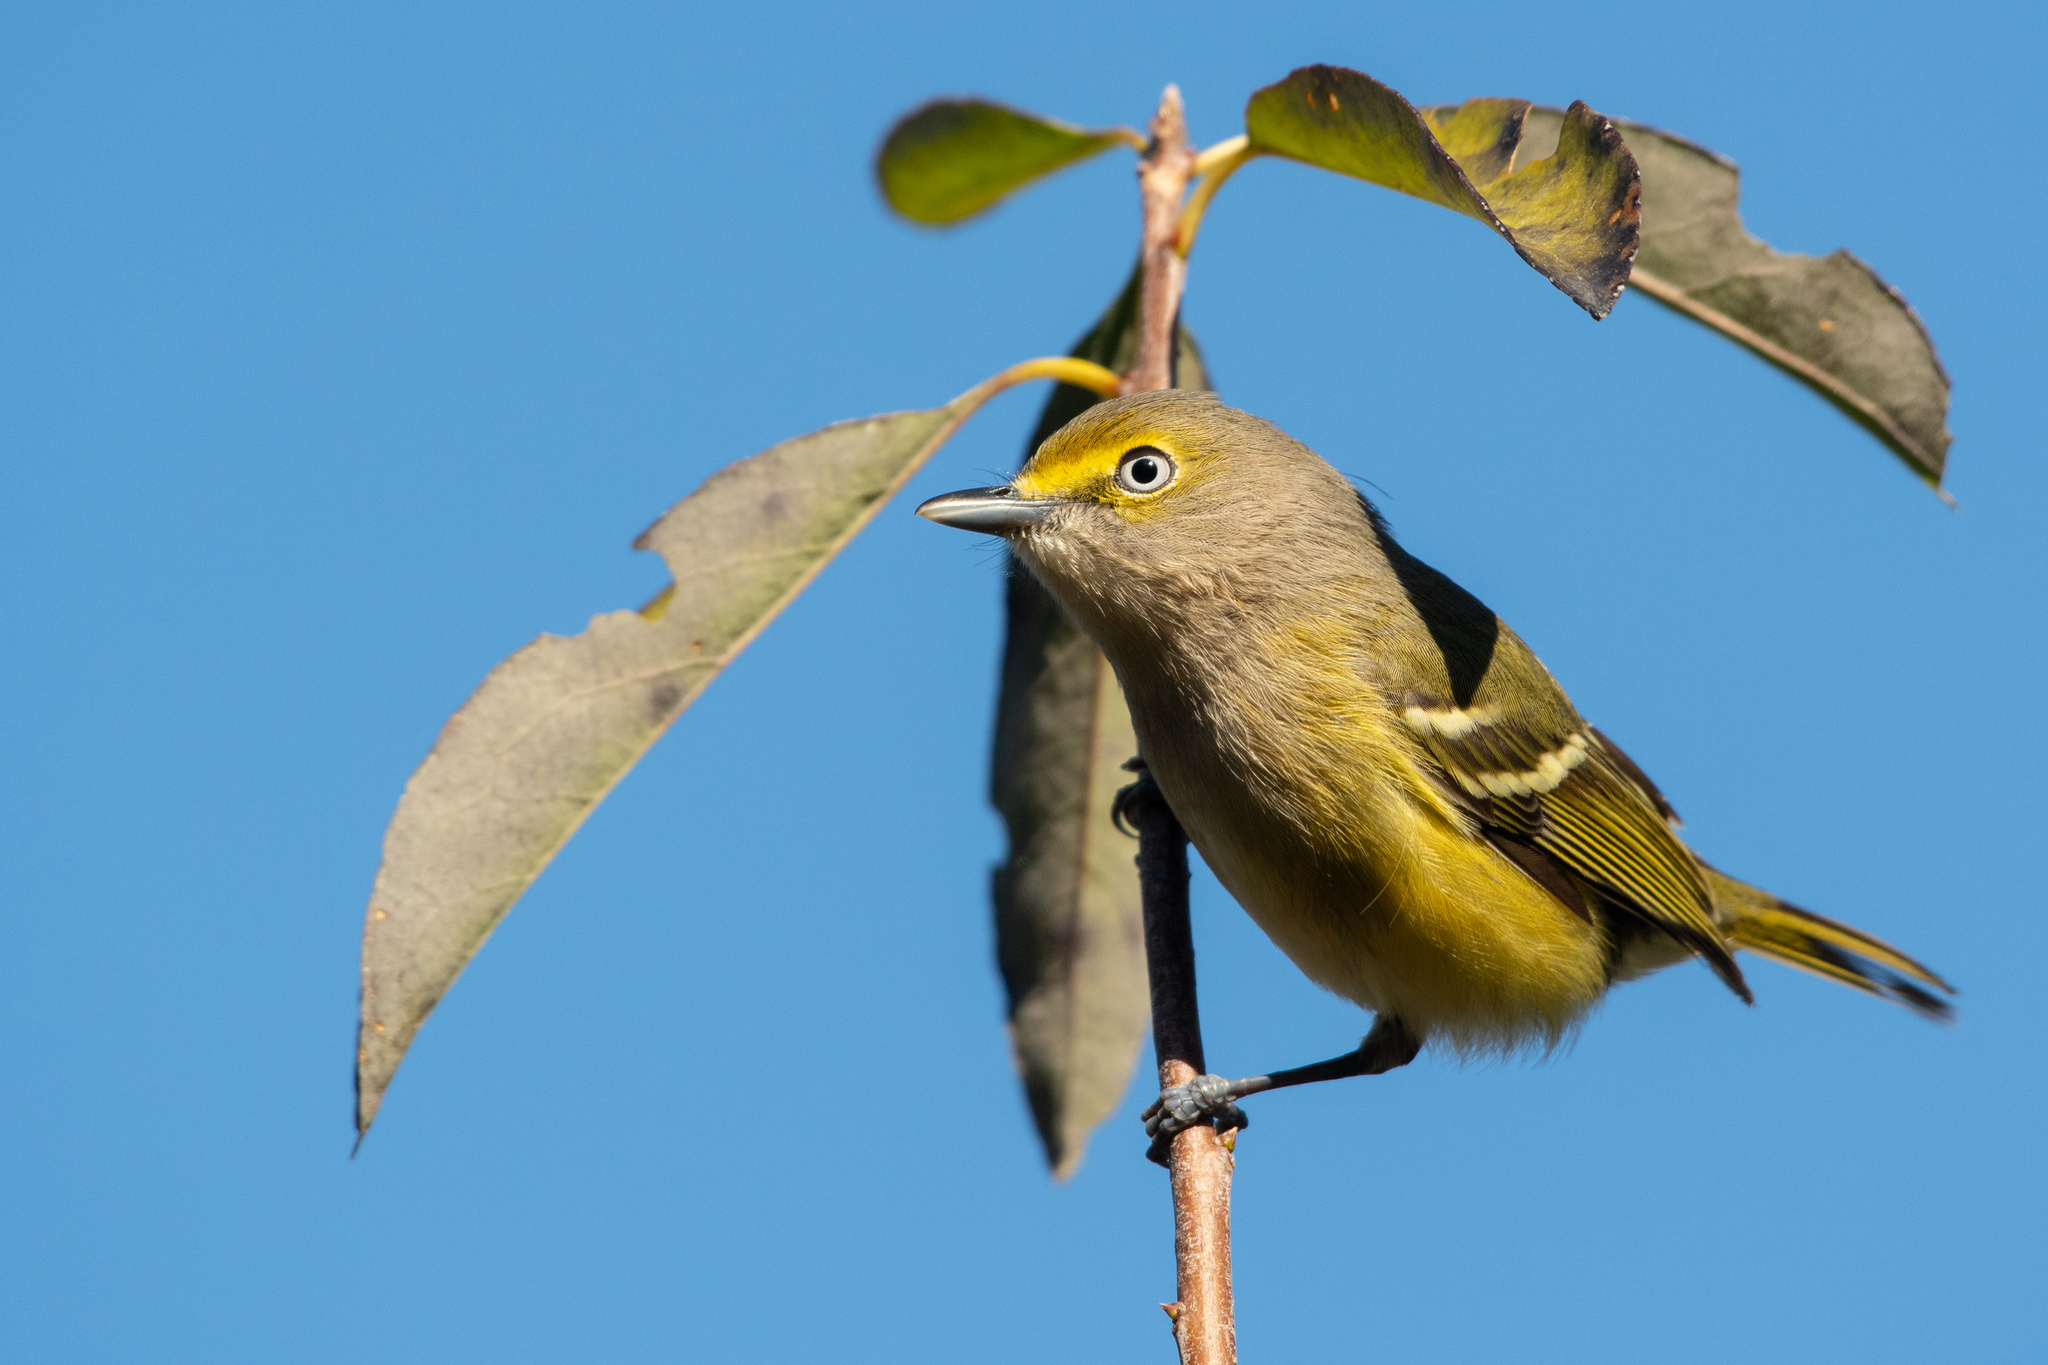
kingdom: Animalia
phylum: Chordata
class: Aves
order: Passeriformes
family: Vireonidae
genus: Vireo
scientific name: Vireo griseus
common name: White-eyed vireo
